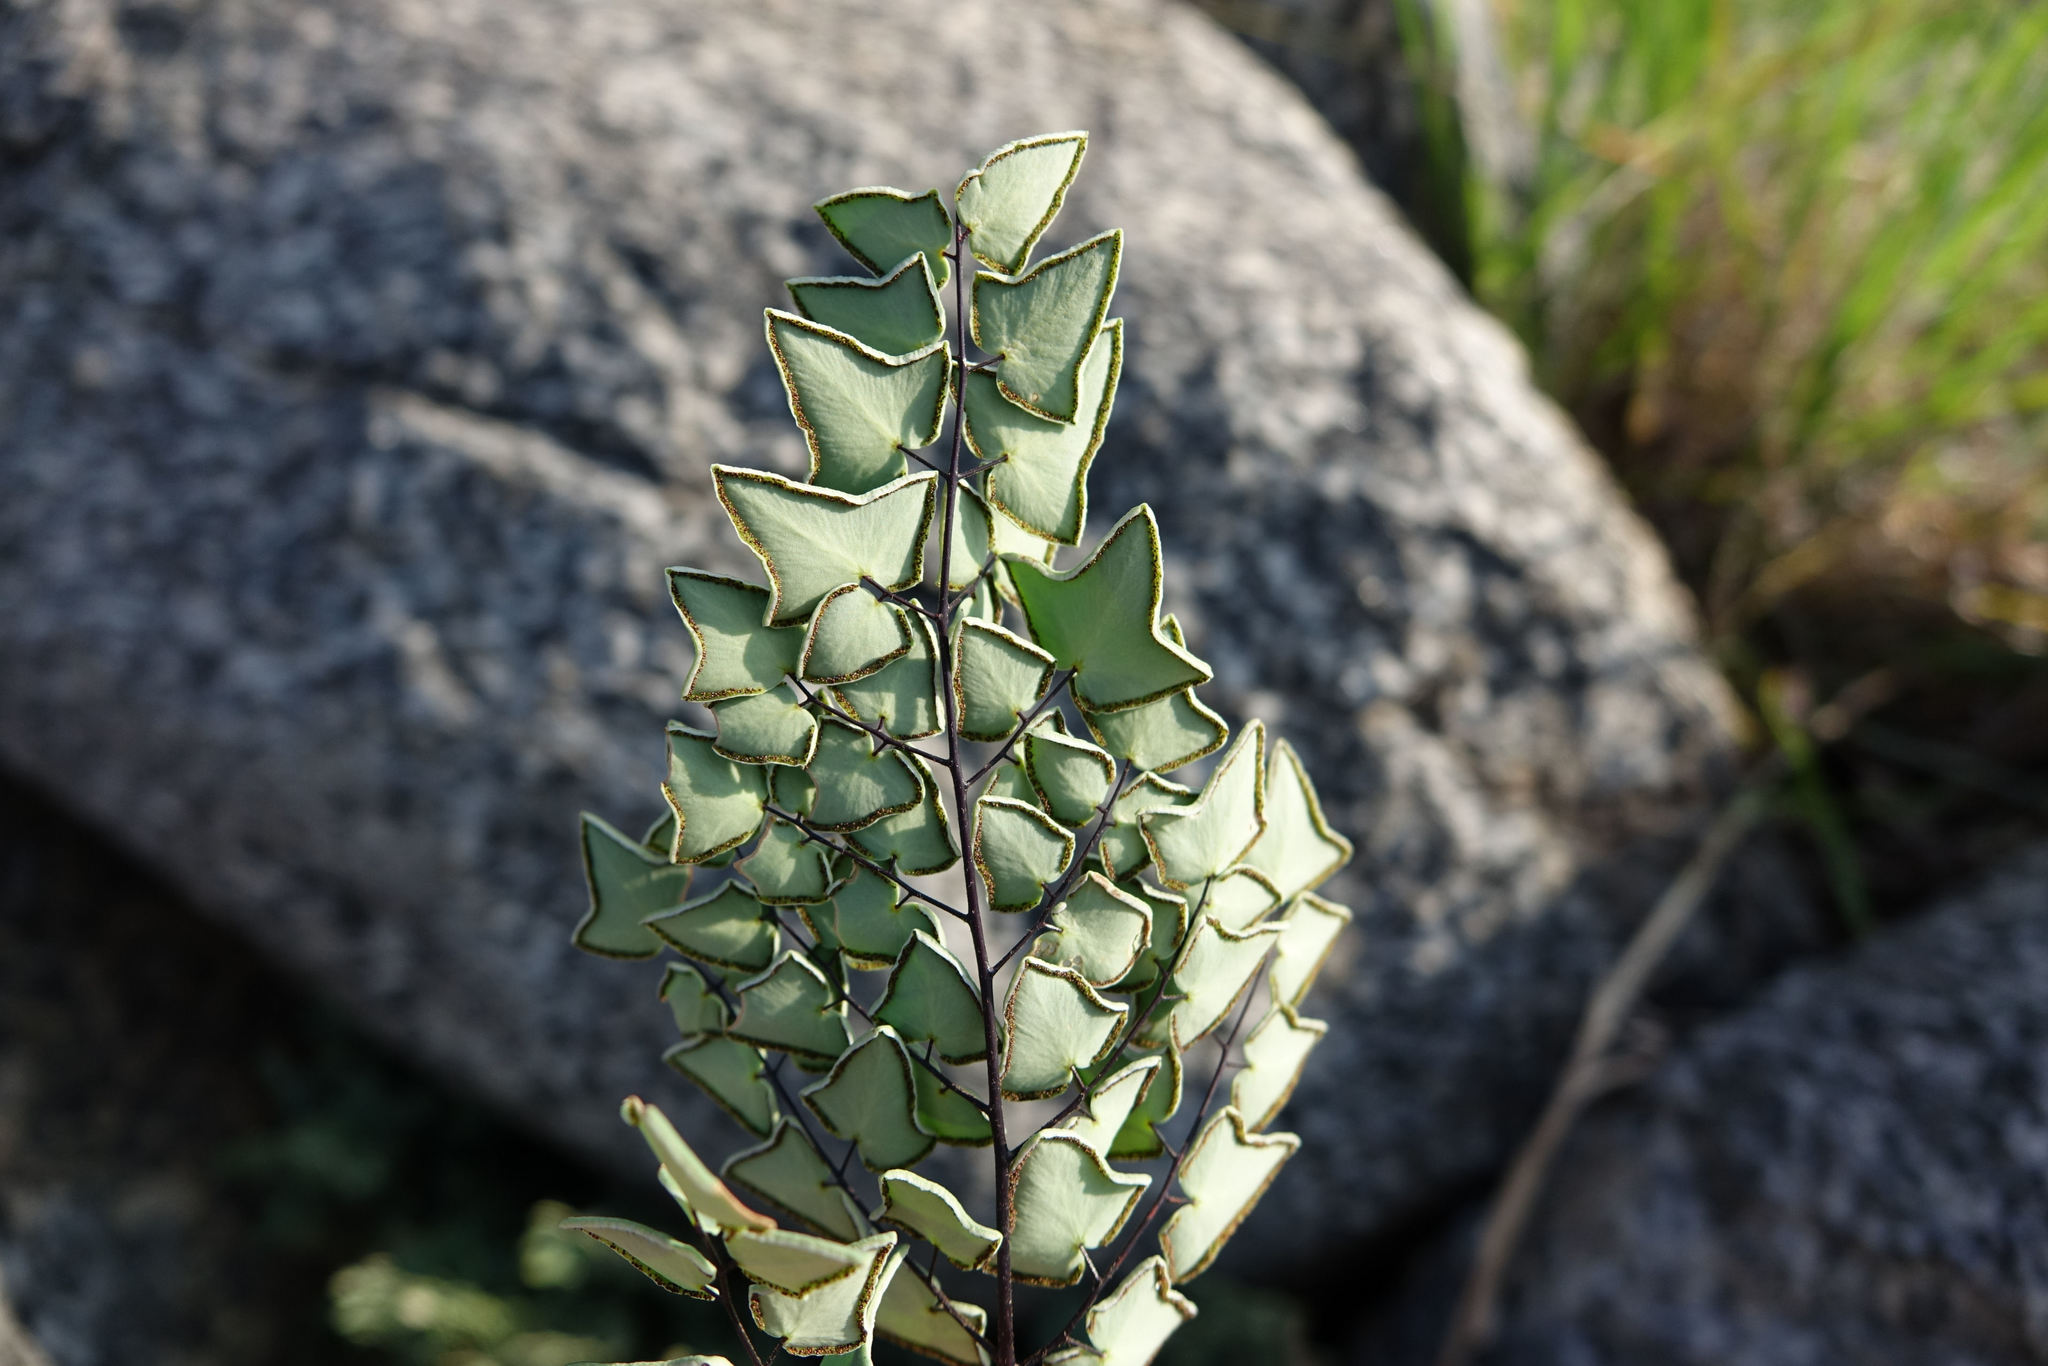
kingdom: Plantae
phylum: Tracheophyta
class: Polypodiopsida
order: Polypodiales
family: Pteridaceae
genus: Pellaea
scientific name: Pellaea calomelanos
